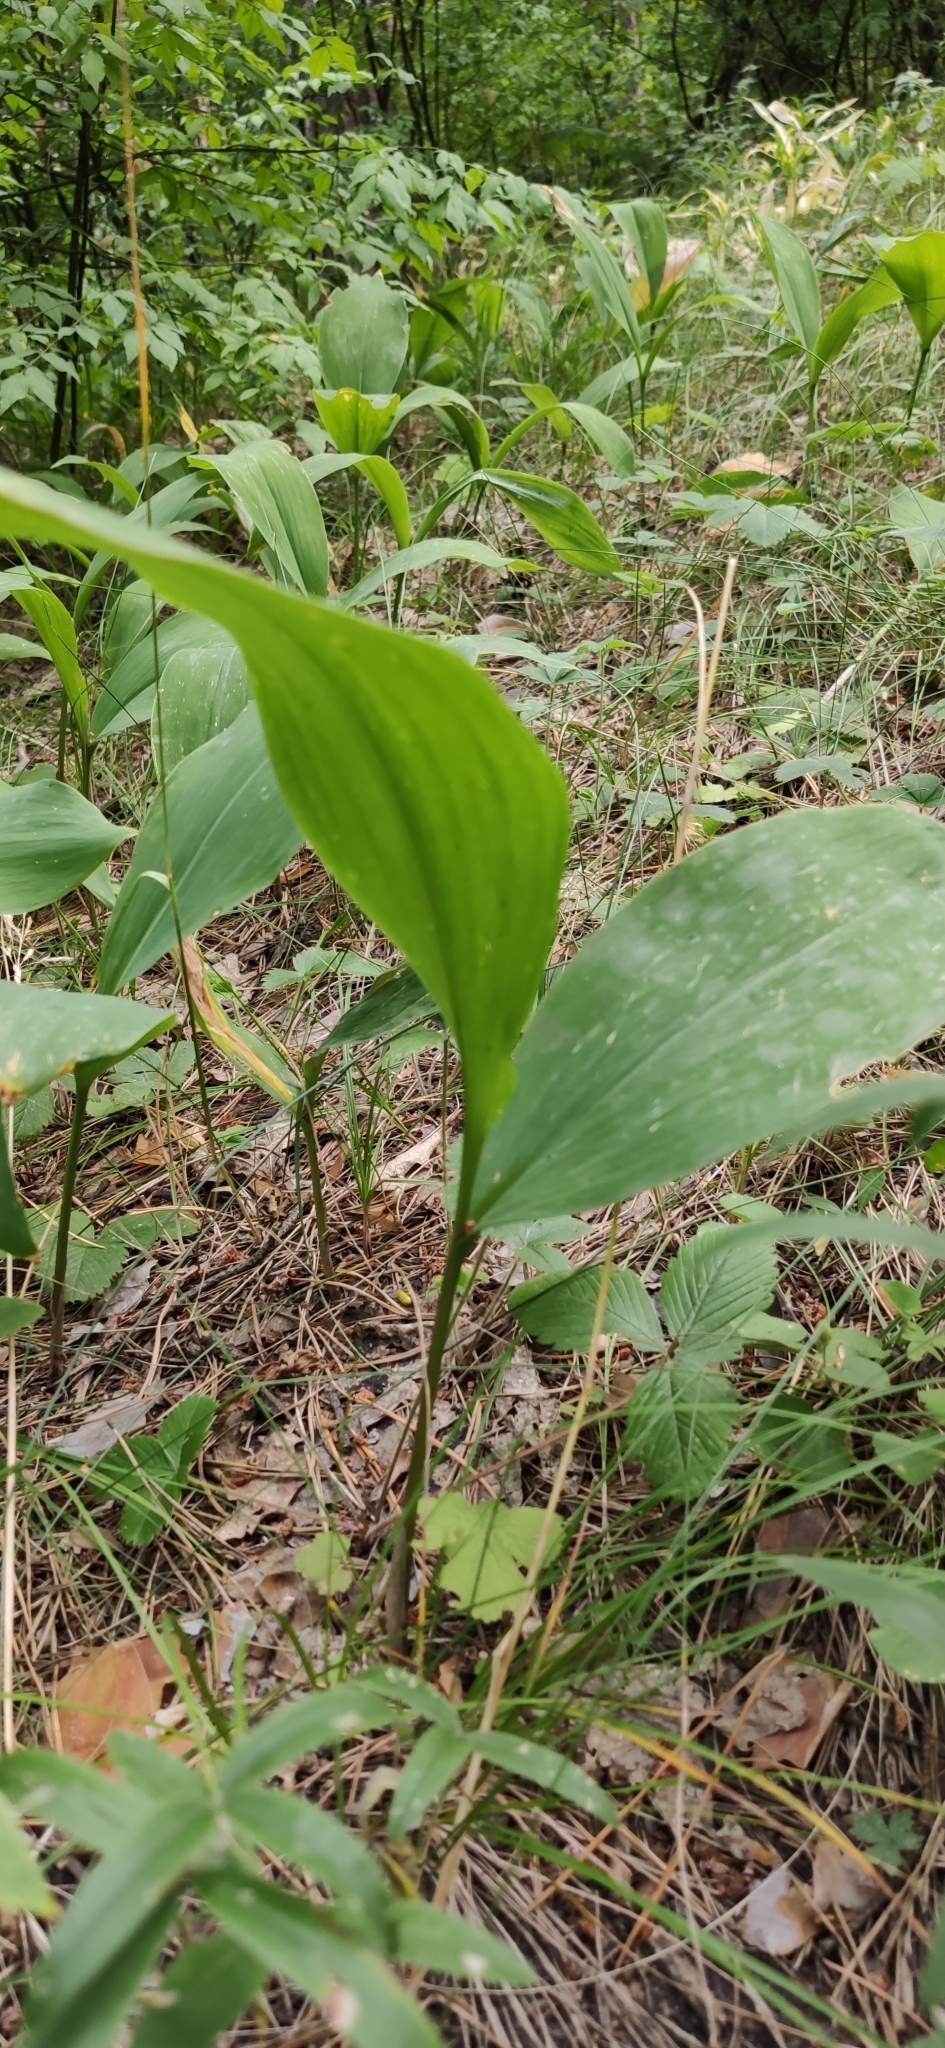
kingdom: Plantae
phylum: Tracheophyta
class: Liliopsida
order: Asparagales
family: Asparagaceae
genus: Convallaria
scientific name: Convallaria majalis
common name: Lily-of-the-valley
